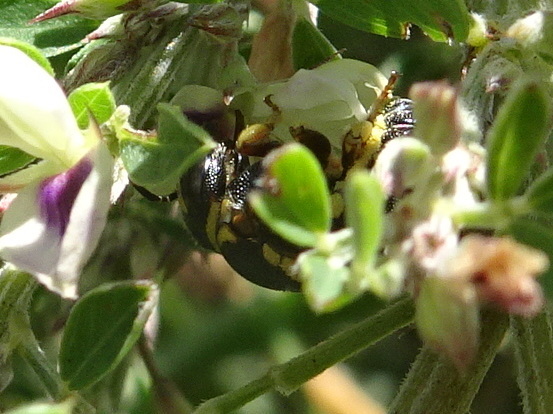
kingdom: Animalia
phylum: Arthropoda
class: Insecta
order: Hymenoptera
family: Megachilidae
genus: Anthidiellum
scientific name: Anthidiellum notatum
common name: Northern rotund-resin bee
